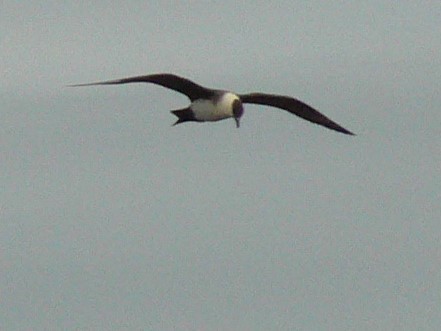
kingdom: Animalia
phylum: Chordata
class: Aves
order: Charadriiformes
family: Stercorariidae
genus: Stercorarius
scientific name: Stercorarius parasiticus
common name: Parasitic jaeger
